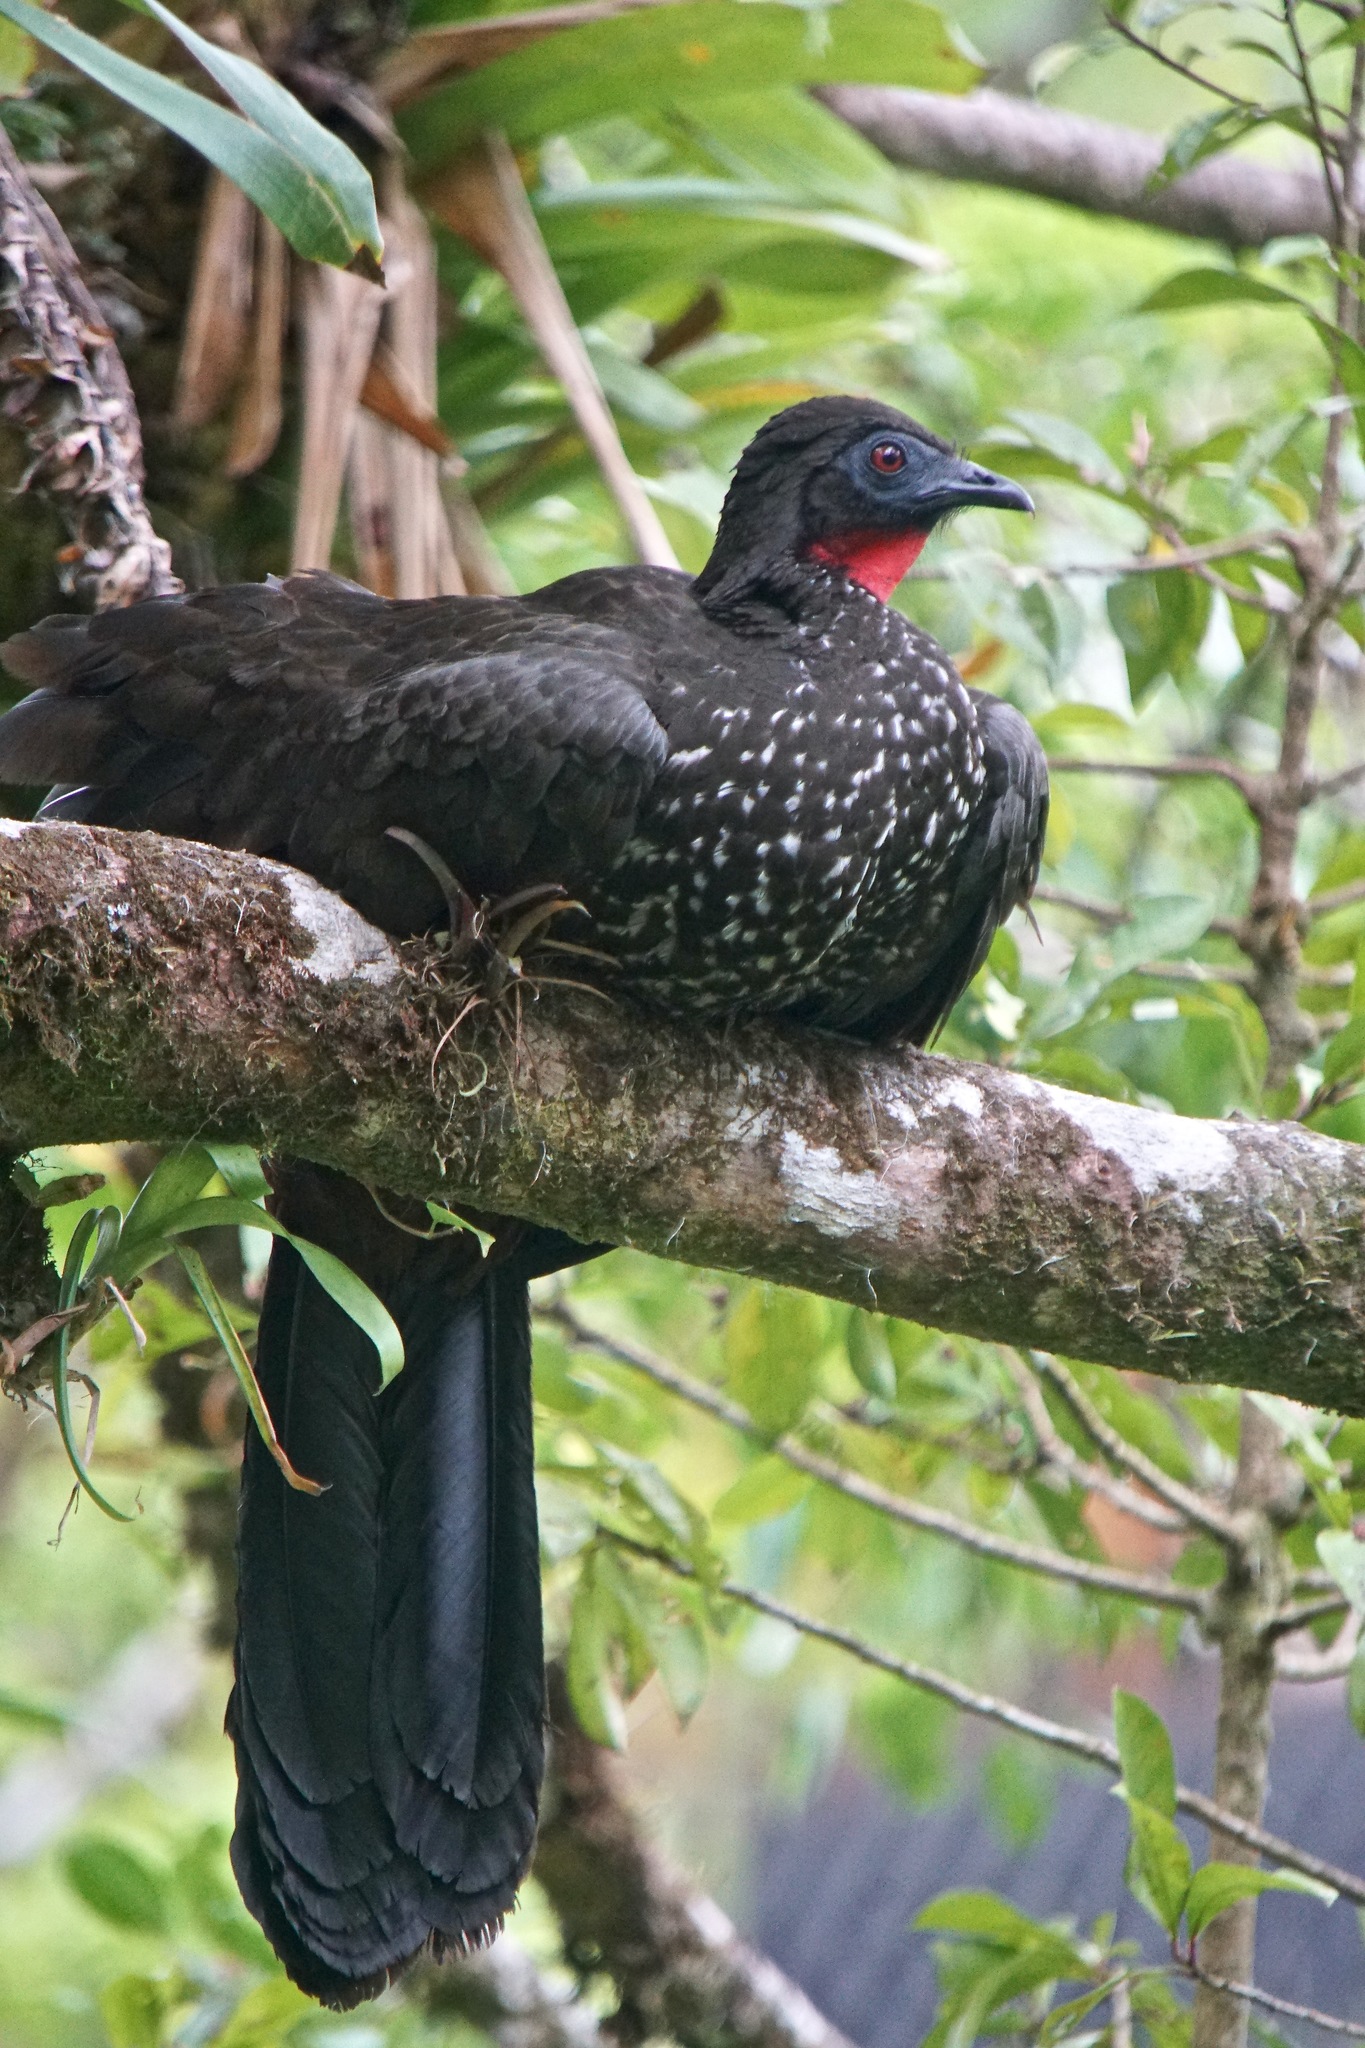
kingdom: Animalia
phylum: Chordata
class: Aves
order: Galliformes
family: Cracidae
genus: Penelope
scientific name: Penelope purpurascens
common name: Crested guan
